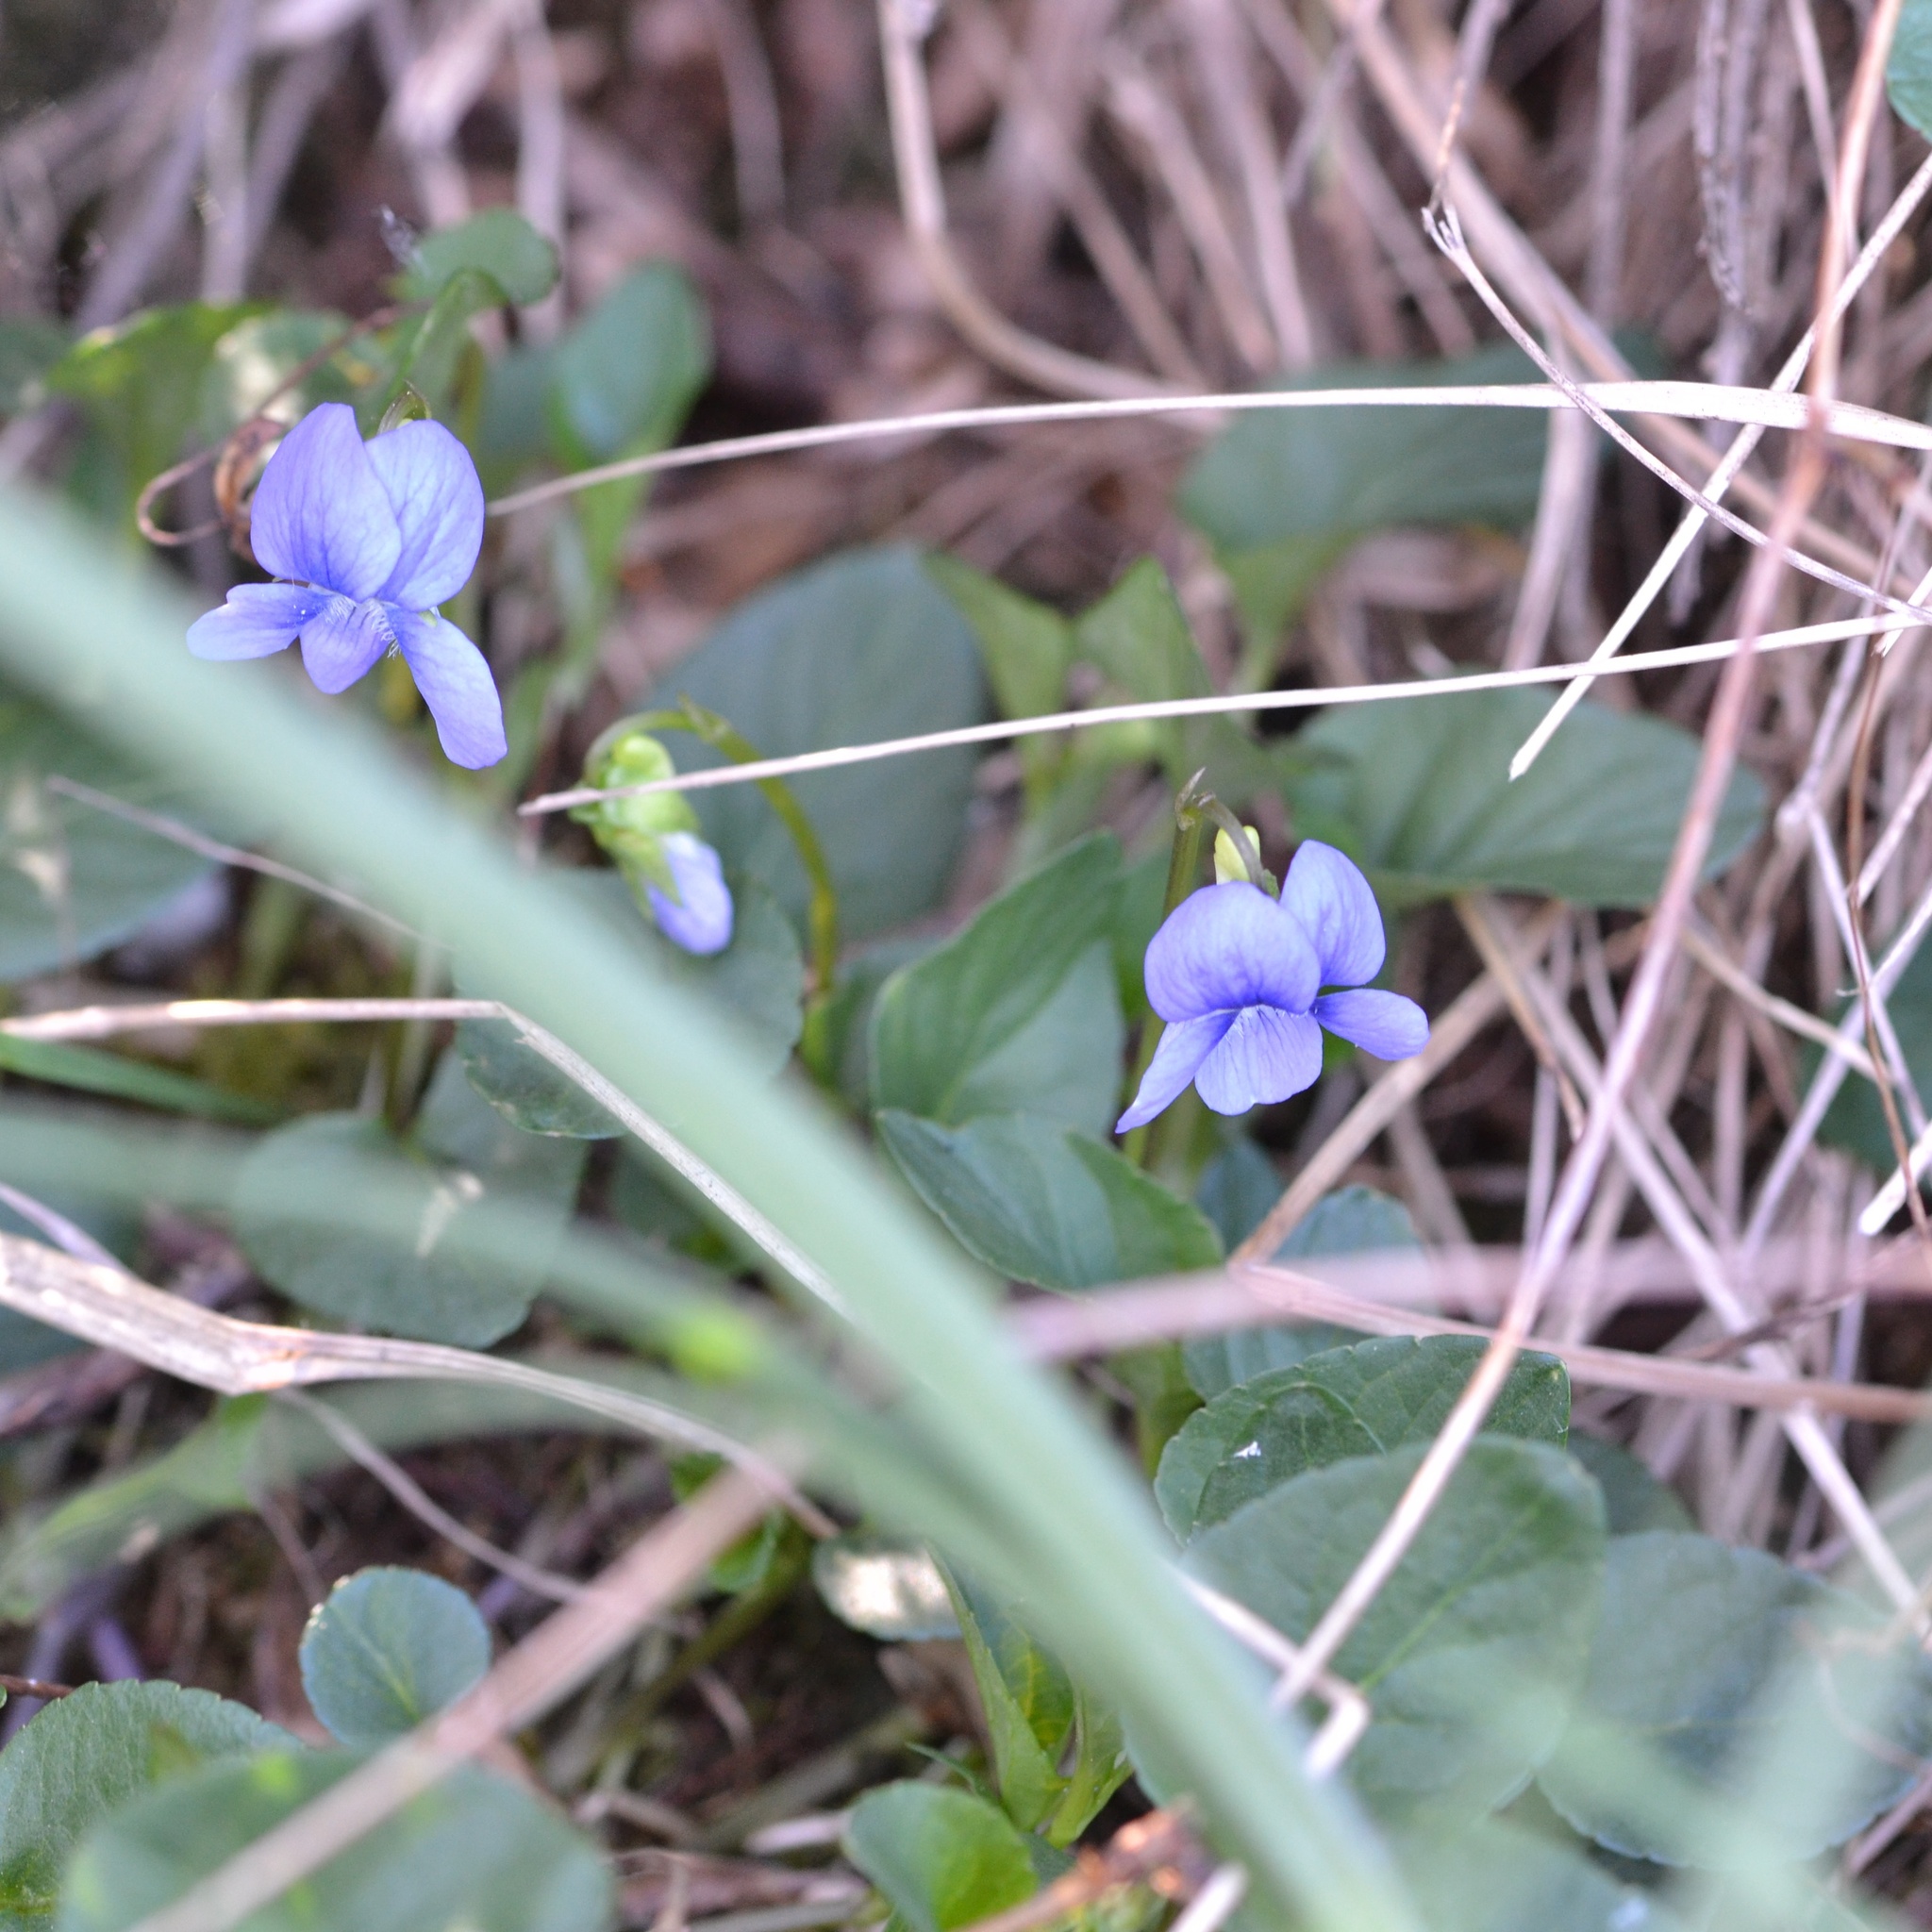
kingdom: Plantae
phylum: Tracheophyta
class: Magnoliopsida
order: Malpighiales
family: Violaceae
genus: Viola
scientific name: Viola riviniana
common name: Common dog-violet
